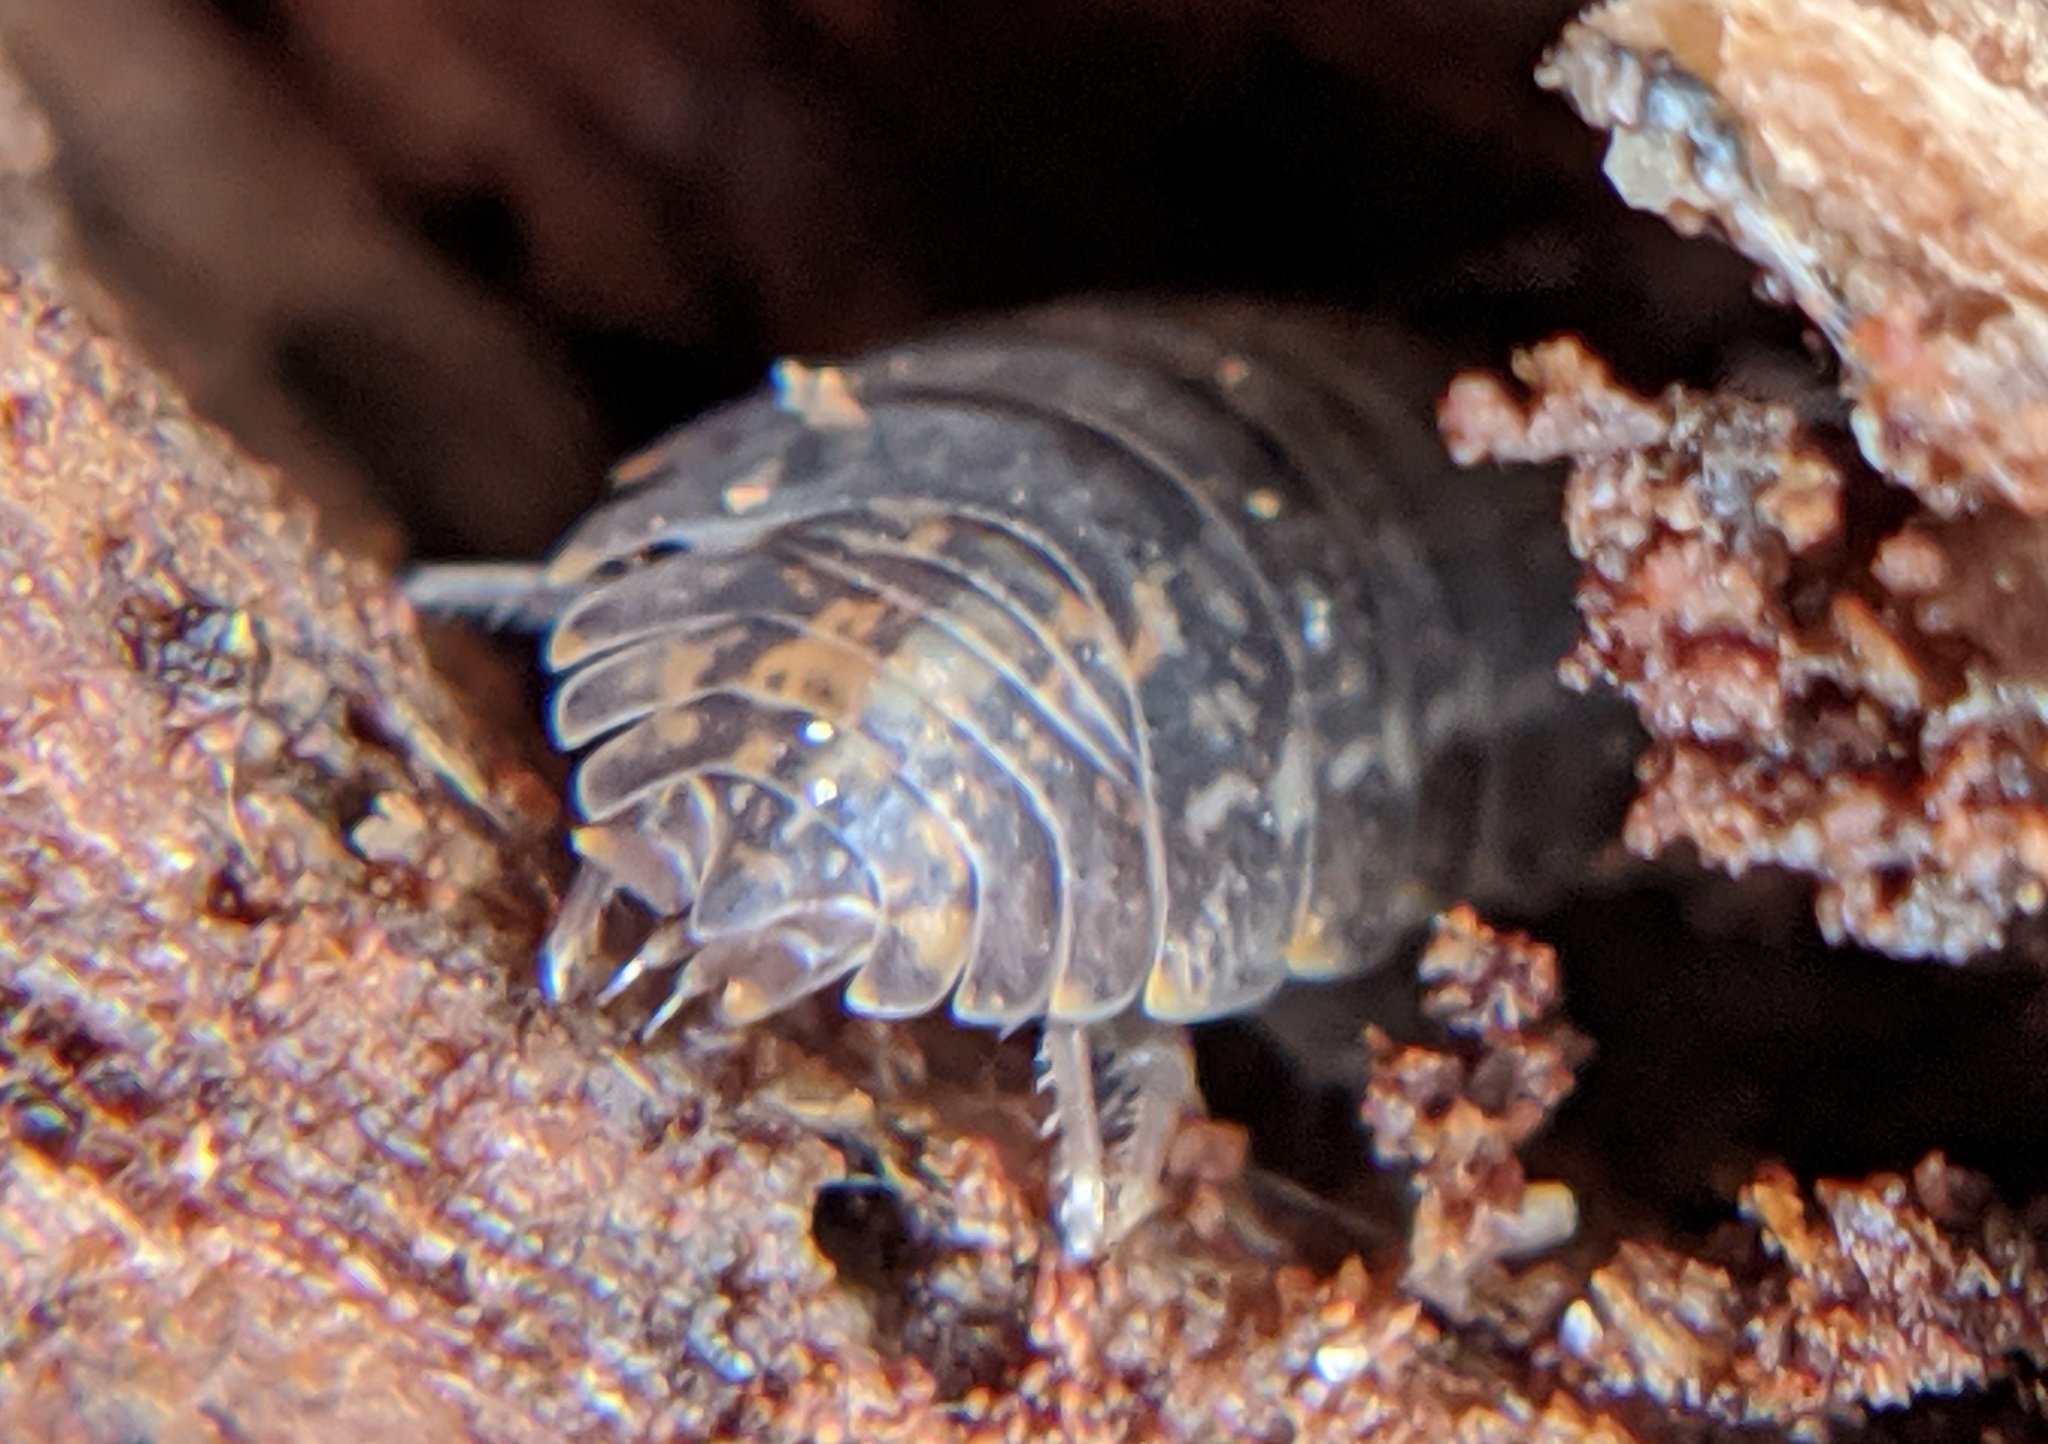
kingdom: Animalia
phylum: Arthropoda
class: Malacostraca
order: Isopoda
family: Trachelipodidae
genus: Trachelipus
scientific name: Trachelipus rathkii
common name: Isopod
